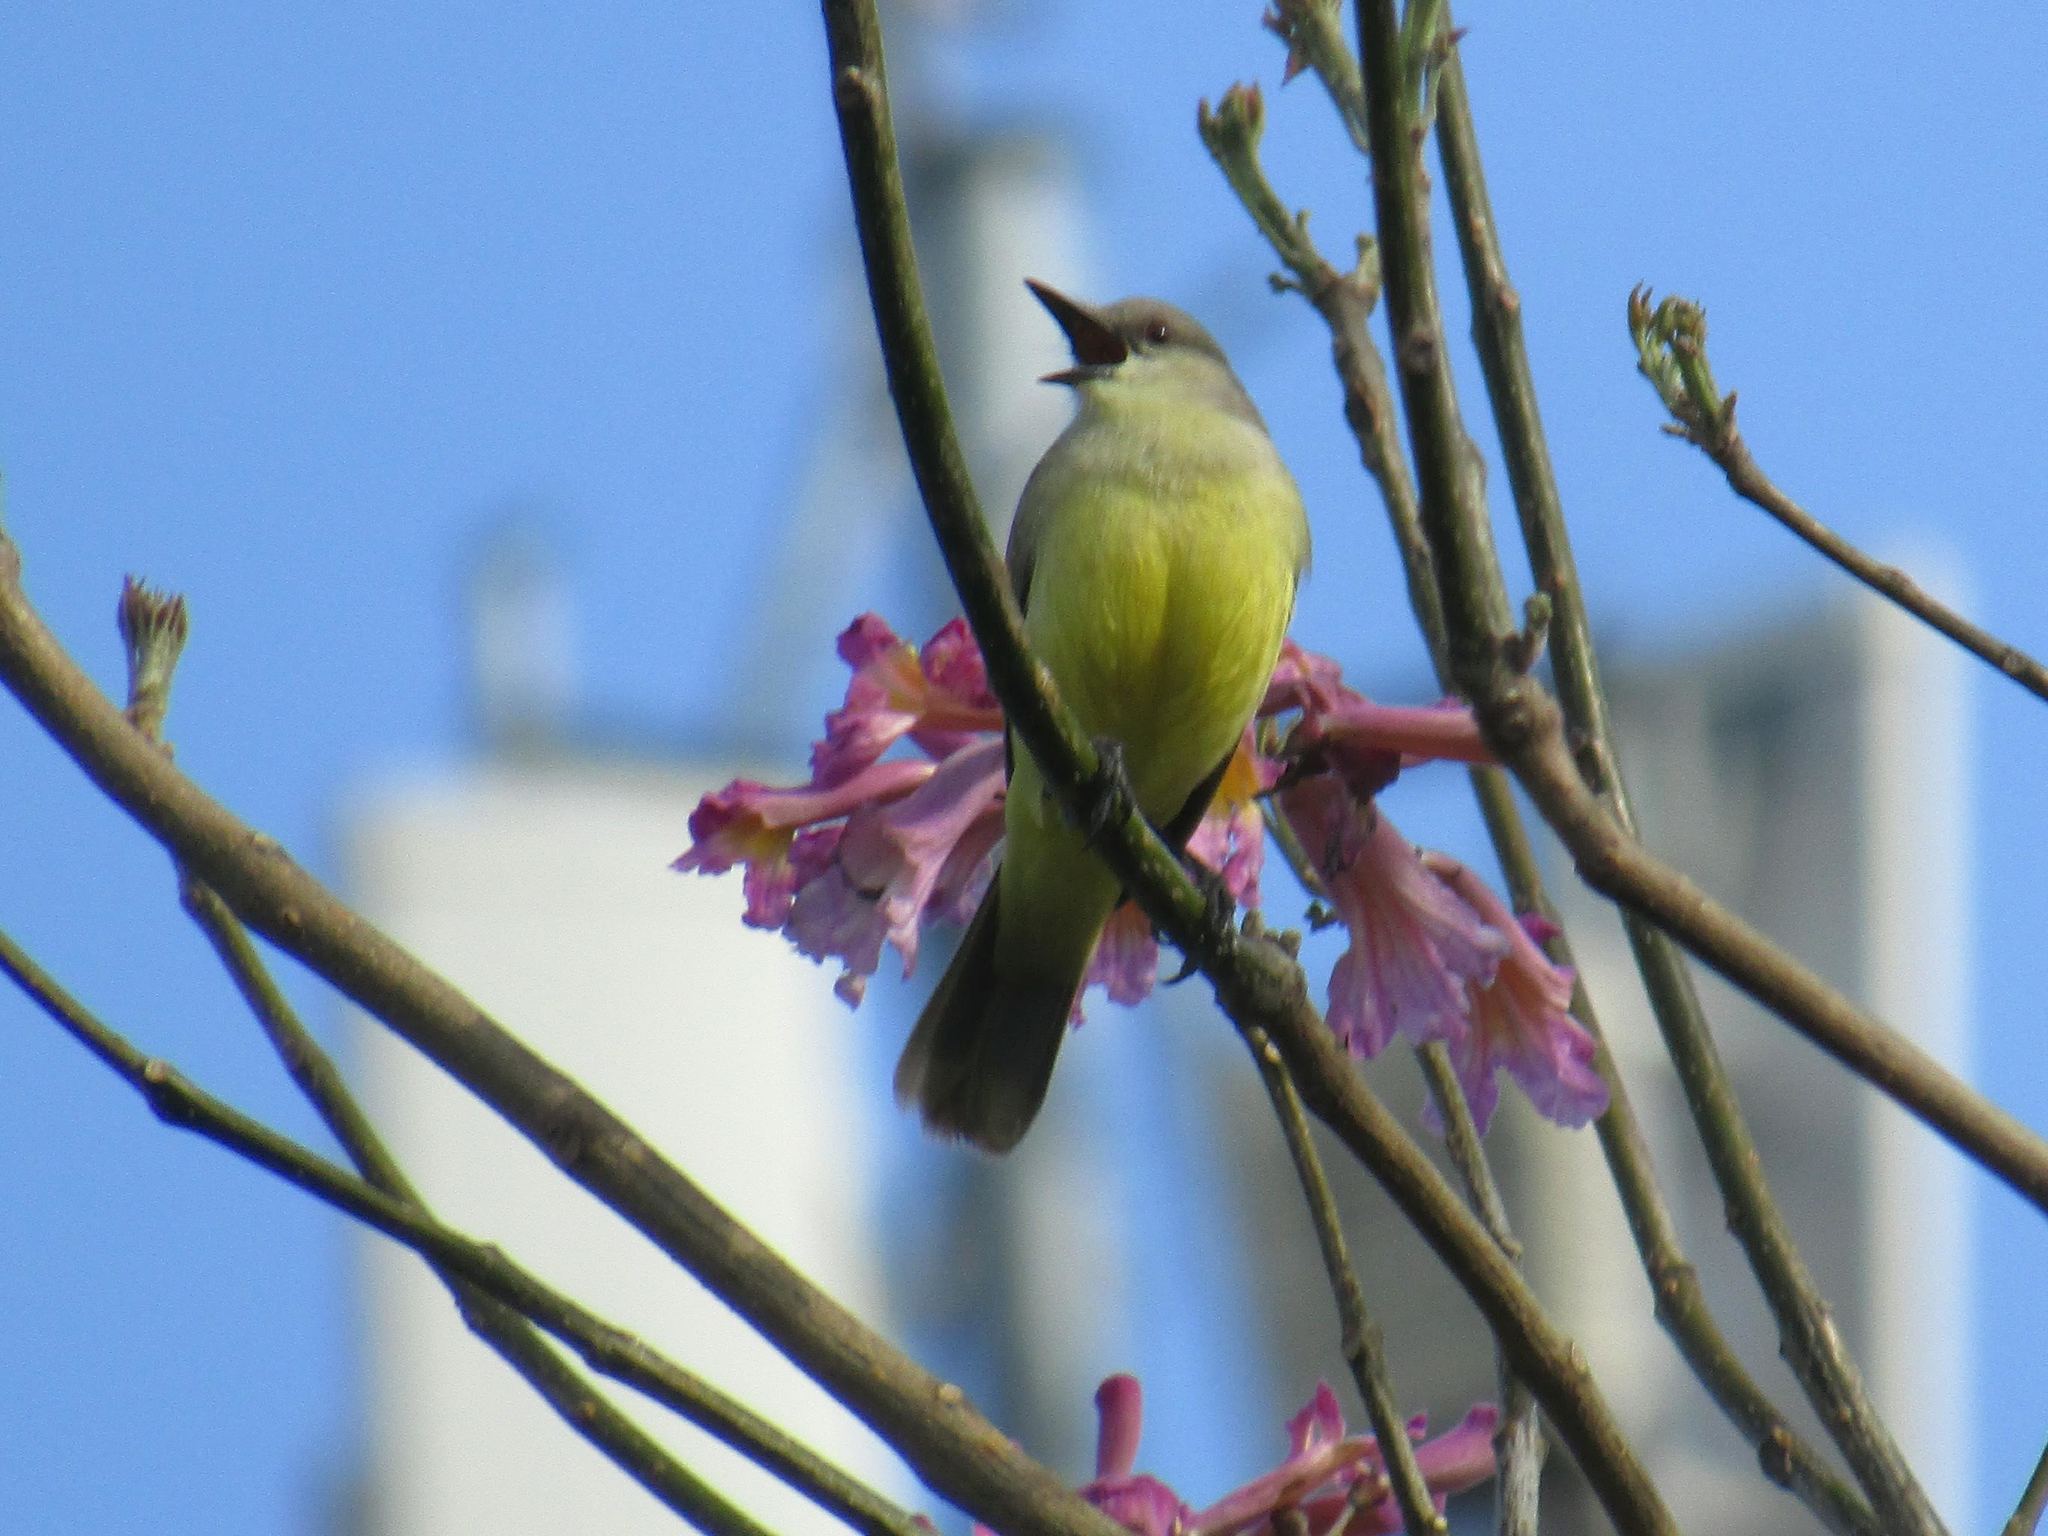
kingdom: Animalia
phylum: Chordata
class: Aves
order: Passeriformes
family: Tyrannidae
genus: Machetornis
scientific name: Machetornis rixosa
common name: Cattle tyrant
